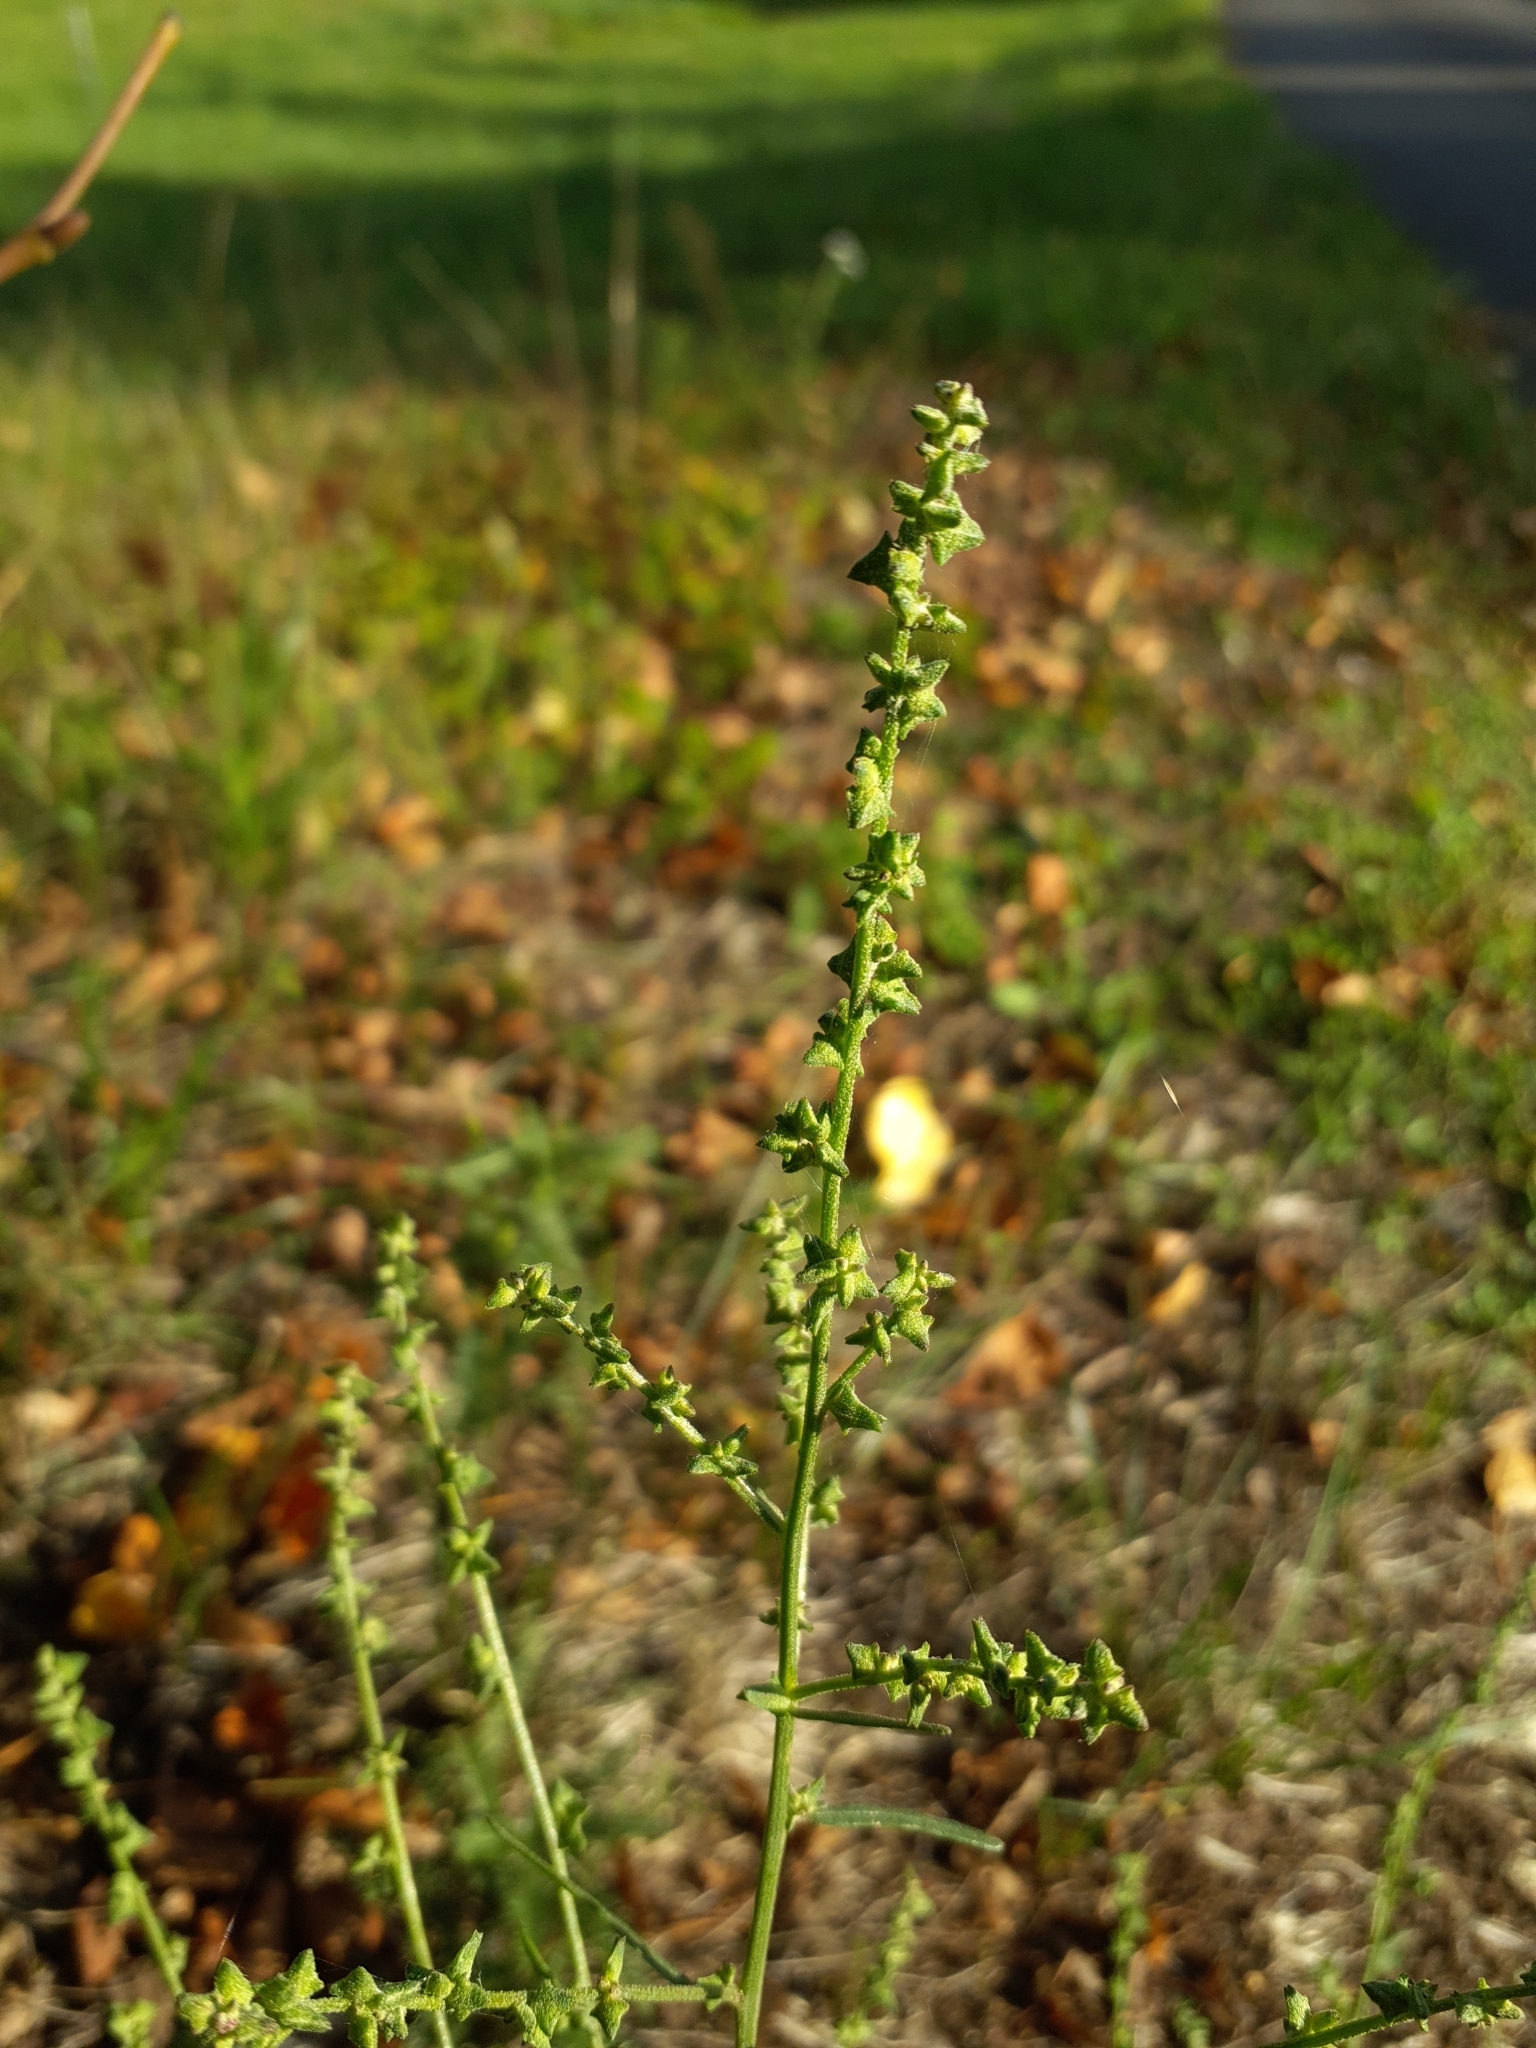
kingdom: Plantae
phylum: Tracheophyta
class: Magnoliopsida
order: Caryophyllales
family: Amaranthaceae
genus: Atriplex
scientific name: Atriplex patula
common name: Common orache
